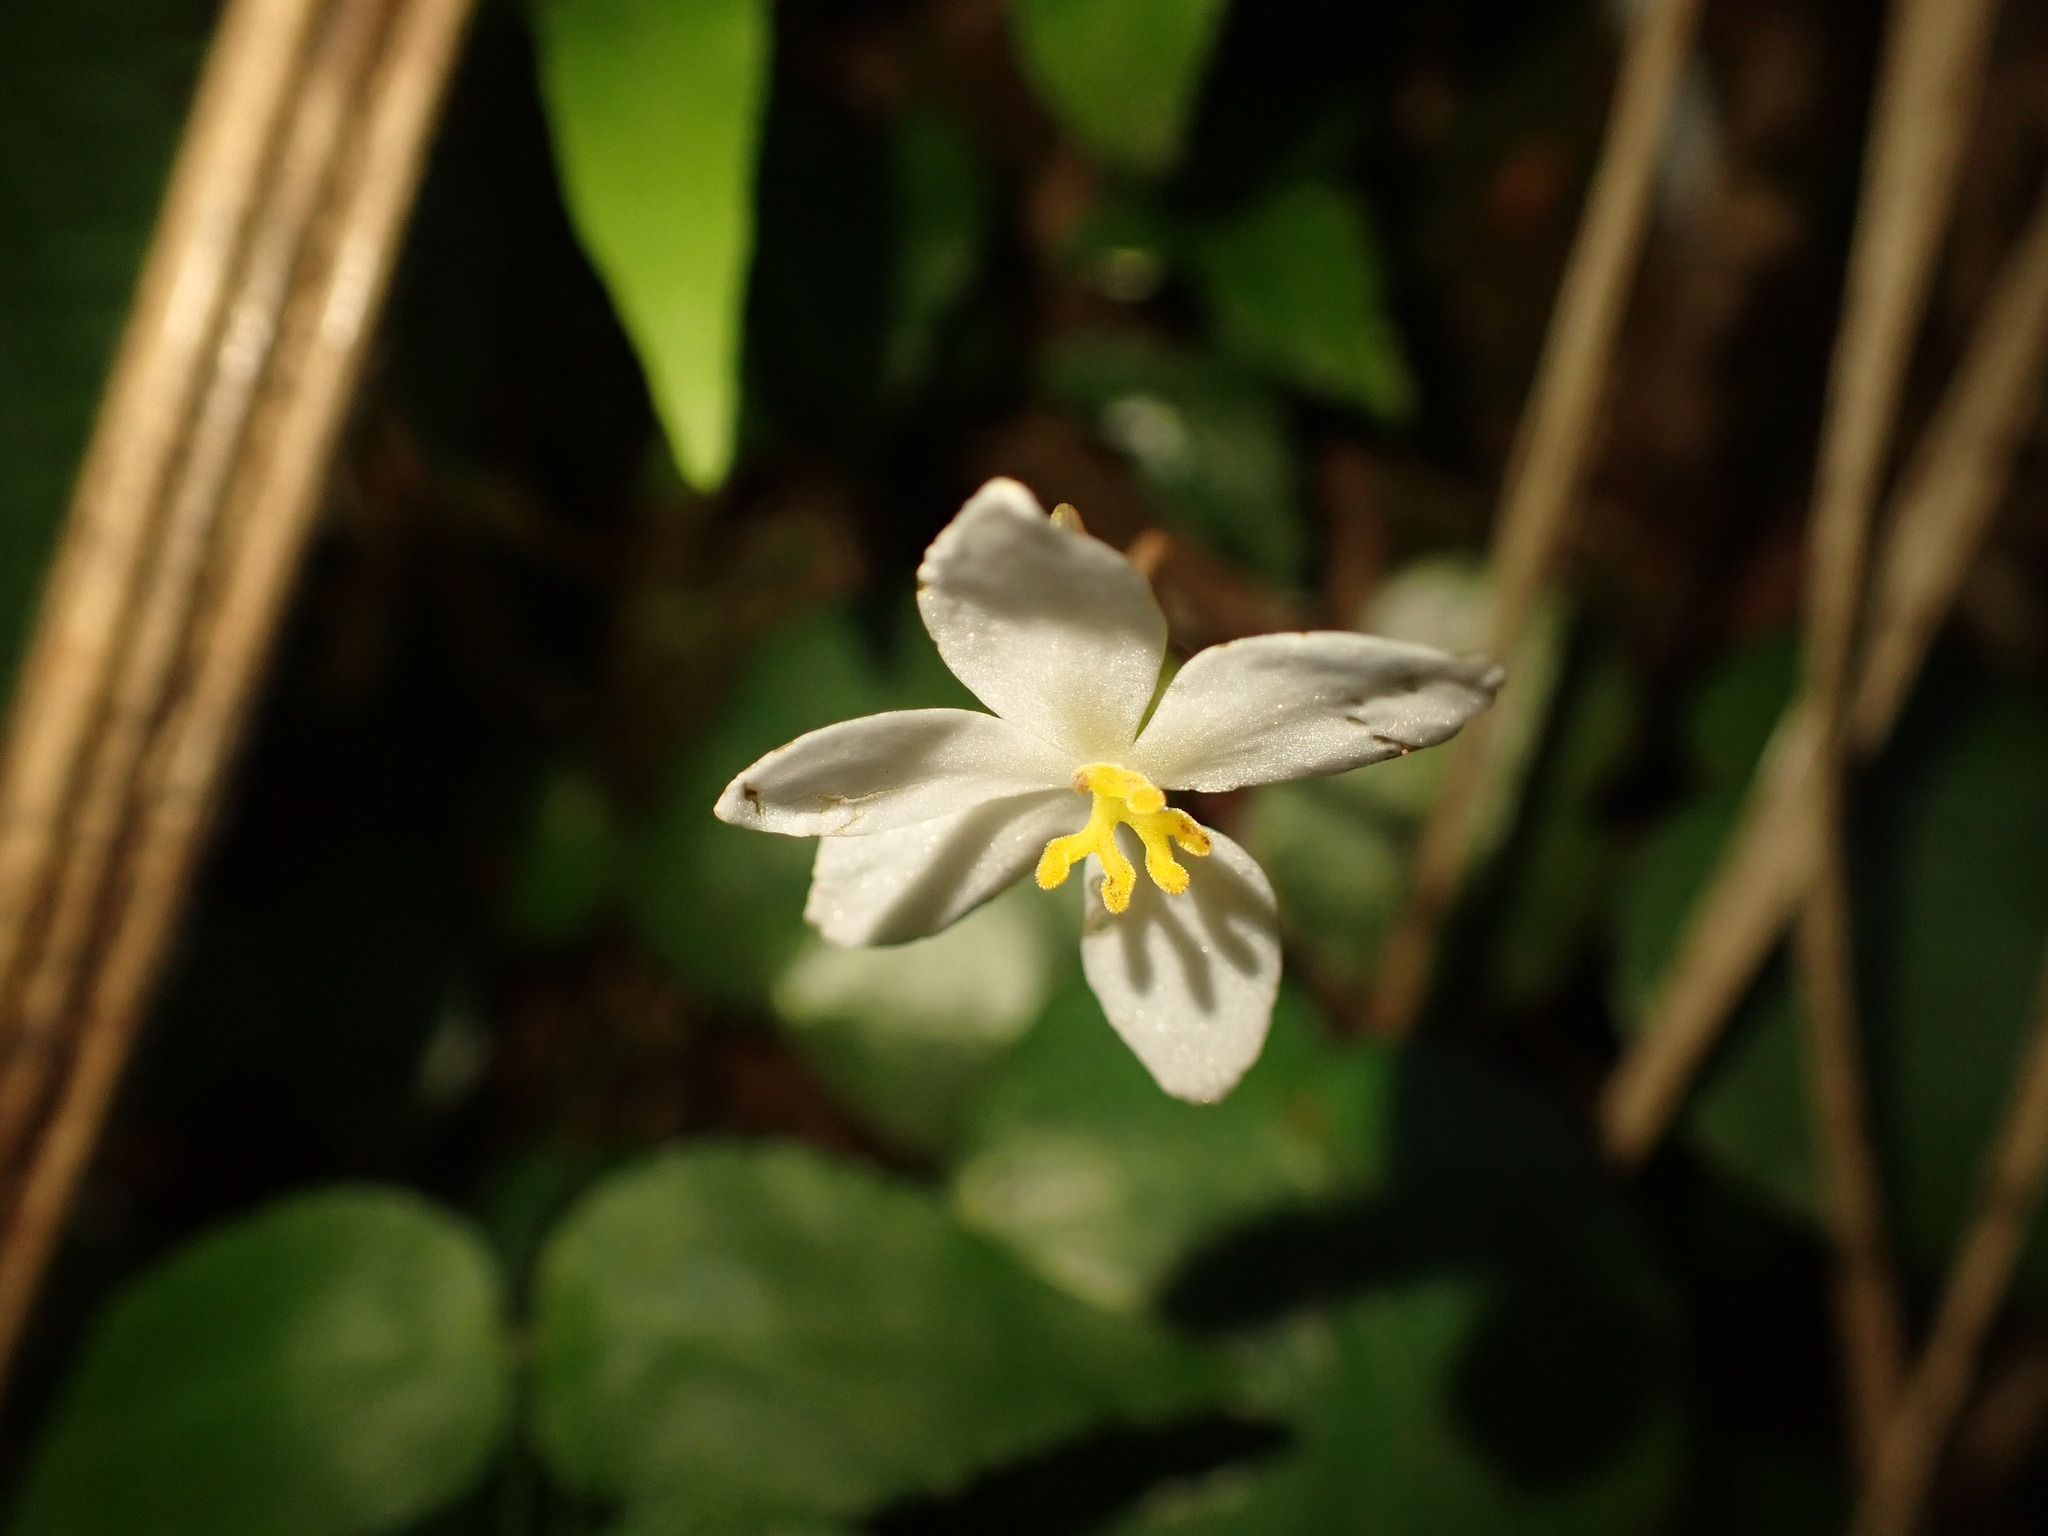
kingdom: Plantae
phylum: Tracheophyta
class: Magnoliopsida
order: Cucurbitales
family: Begoniaceae
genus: Begonia
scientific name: Begonia itatiaiensis
